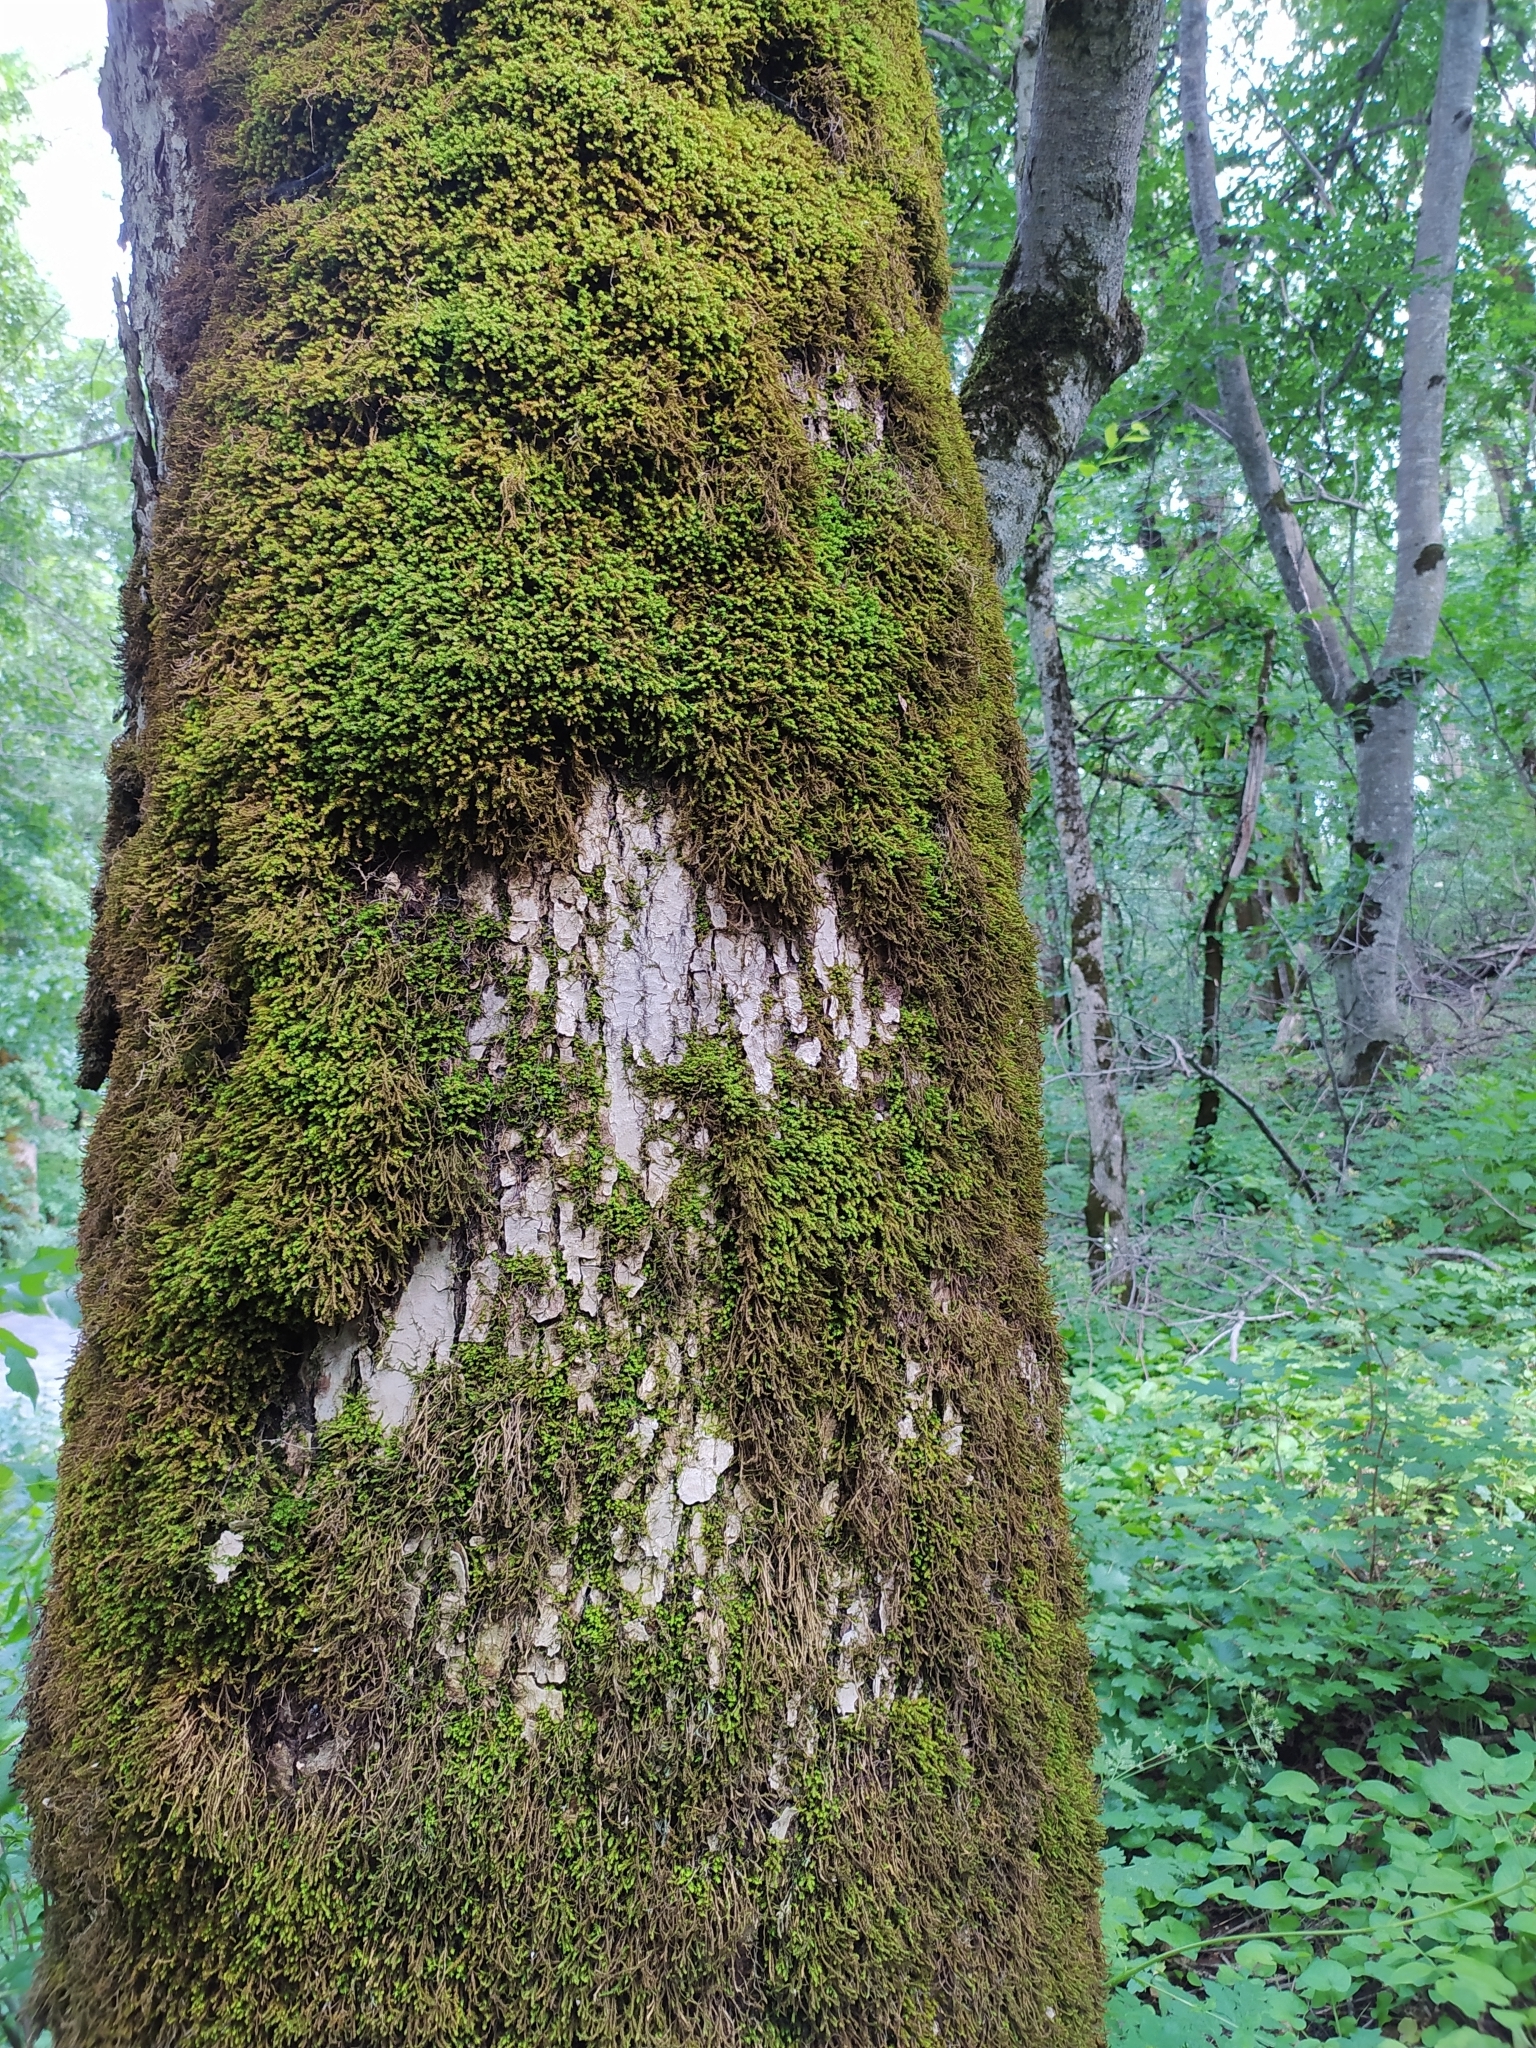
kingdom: Plantae
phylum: Bryophyta
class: Bryopsida
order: Hypnales
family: Anomodontaceae
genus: Anomodon
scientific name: Anomodon viticulosus
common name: Tall anomodon
